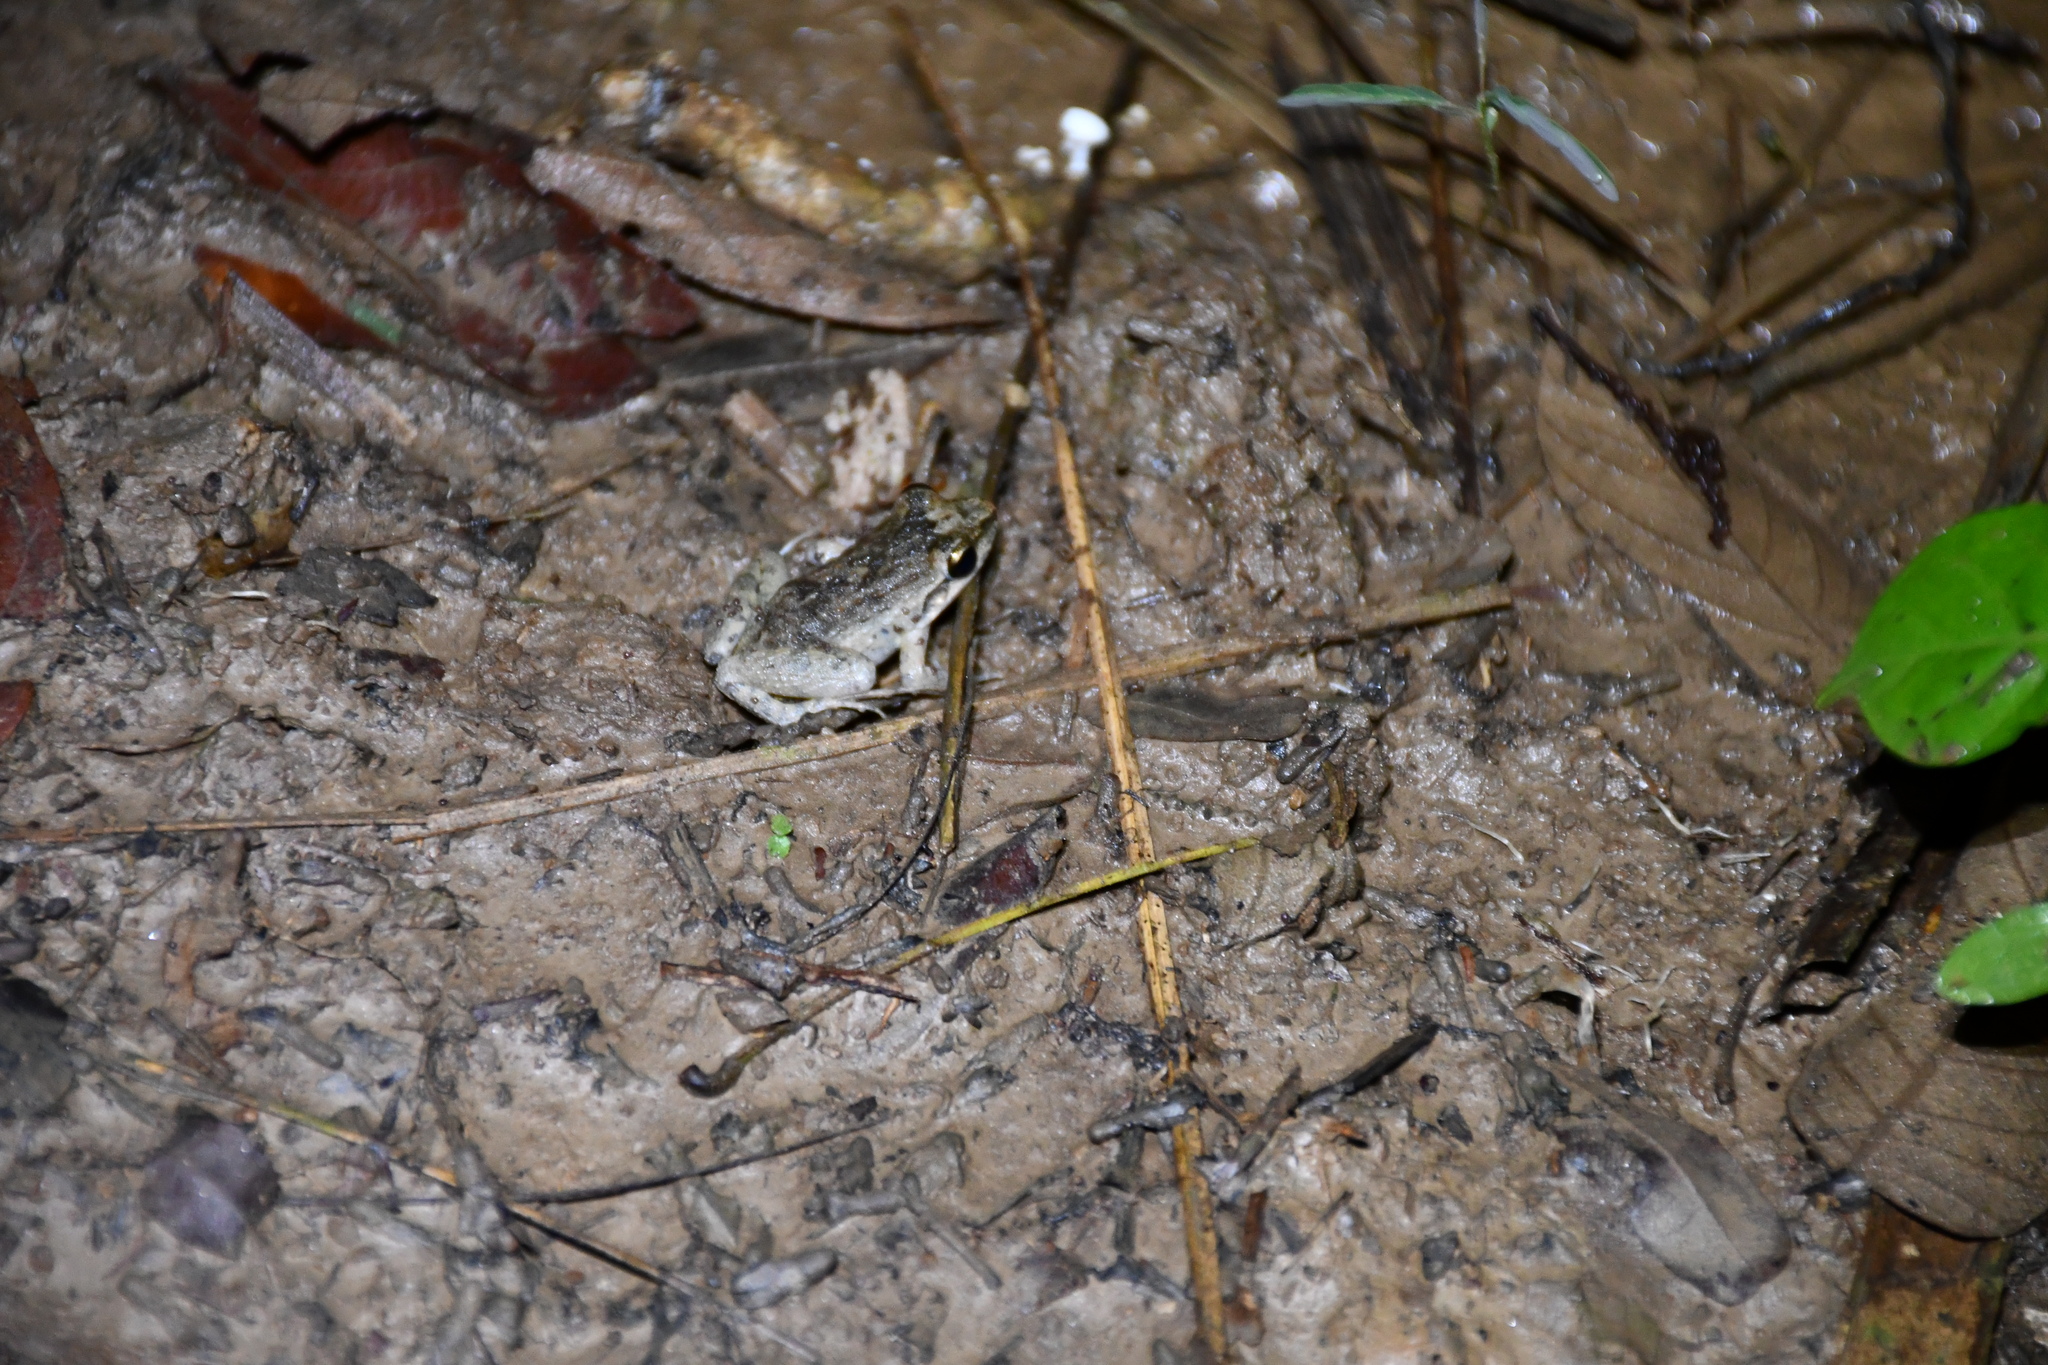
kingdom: Animalia
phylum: Chordata
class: Amphibia
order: Anura
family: Leptodactylidae
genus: Leptodactylus
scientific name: Leptodactylus petersii
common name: Peters' thin-toed frog
